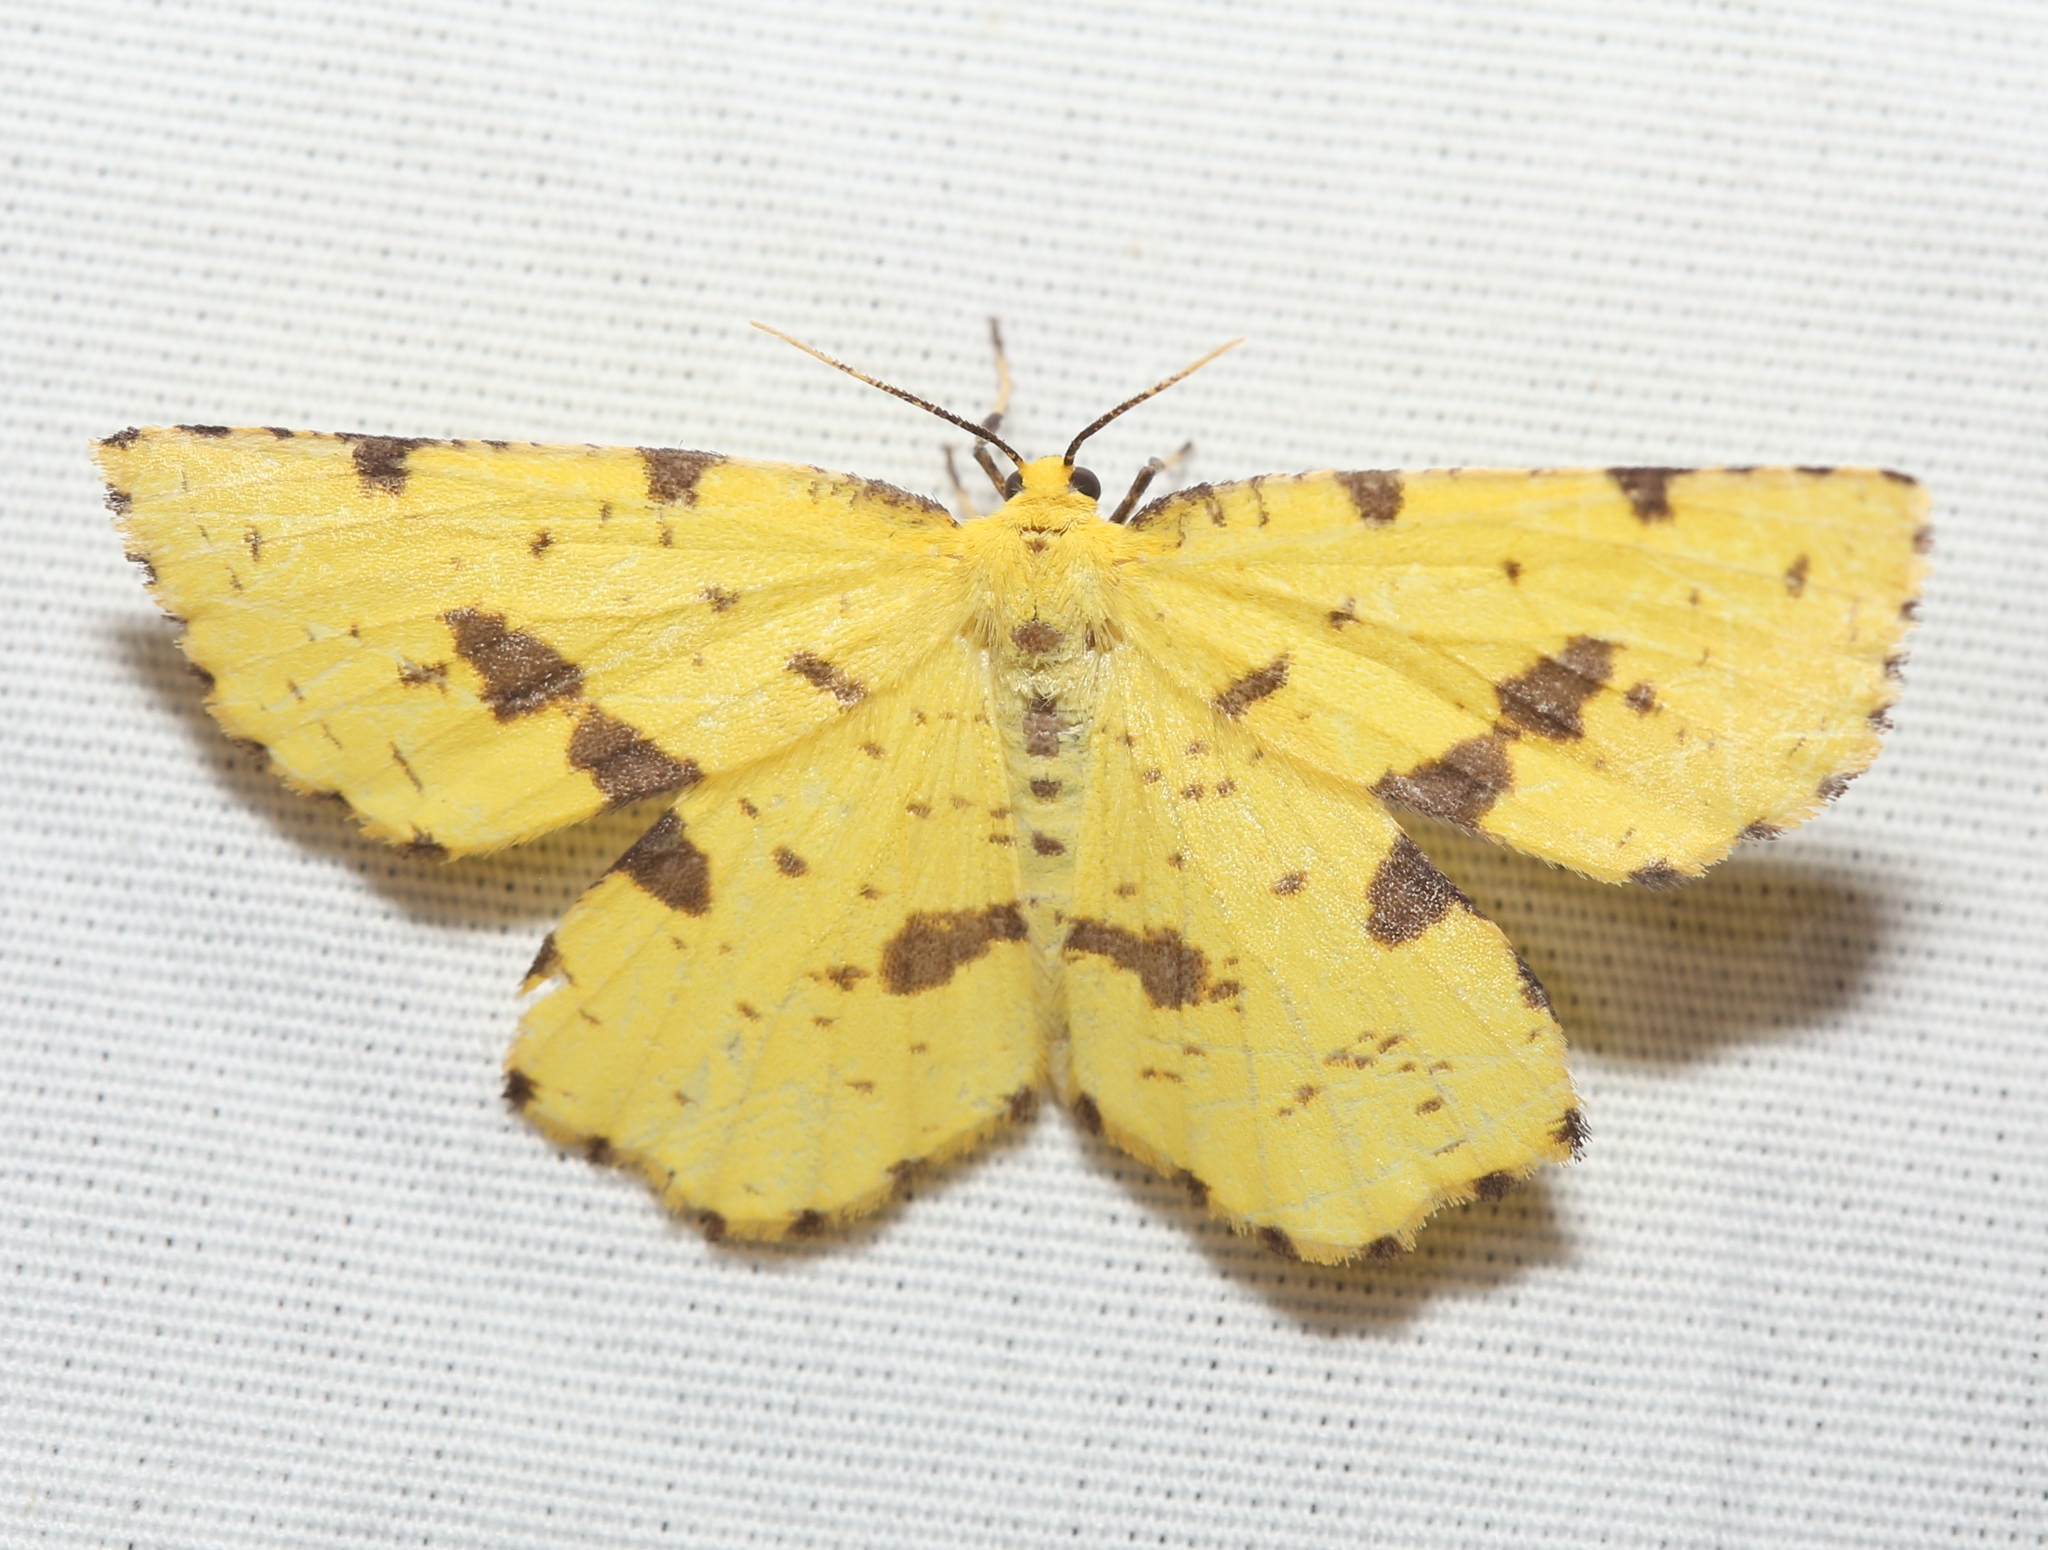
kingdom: Animalia
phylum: Arthropoda
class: Insecta
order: Lepidoptera
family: Geometridae
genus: Xanthotype
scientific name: Xanthotype
